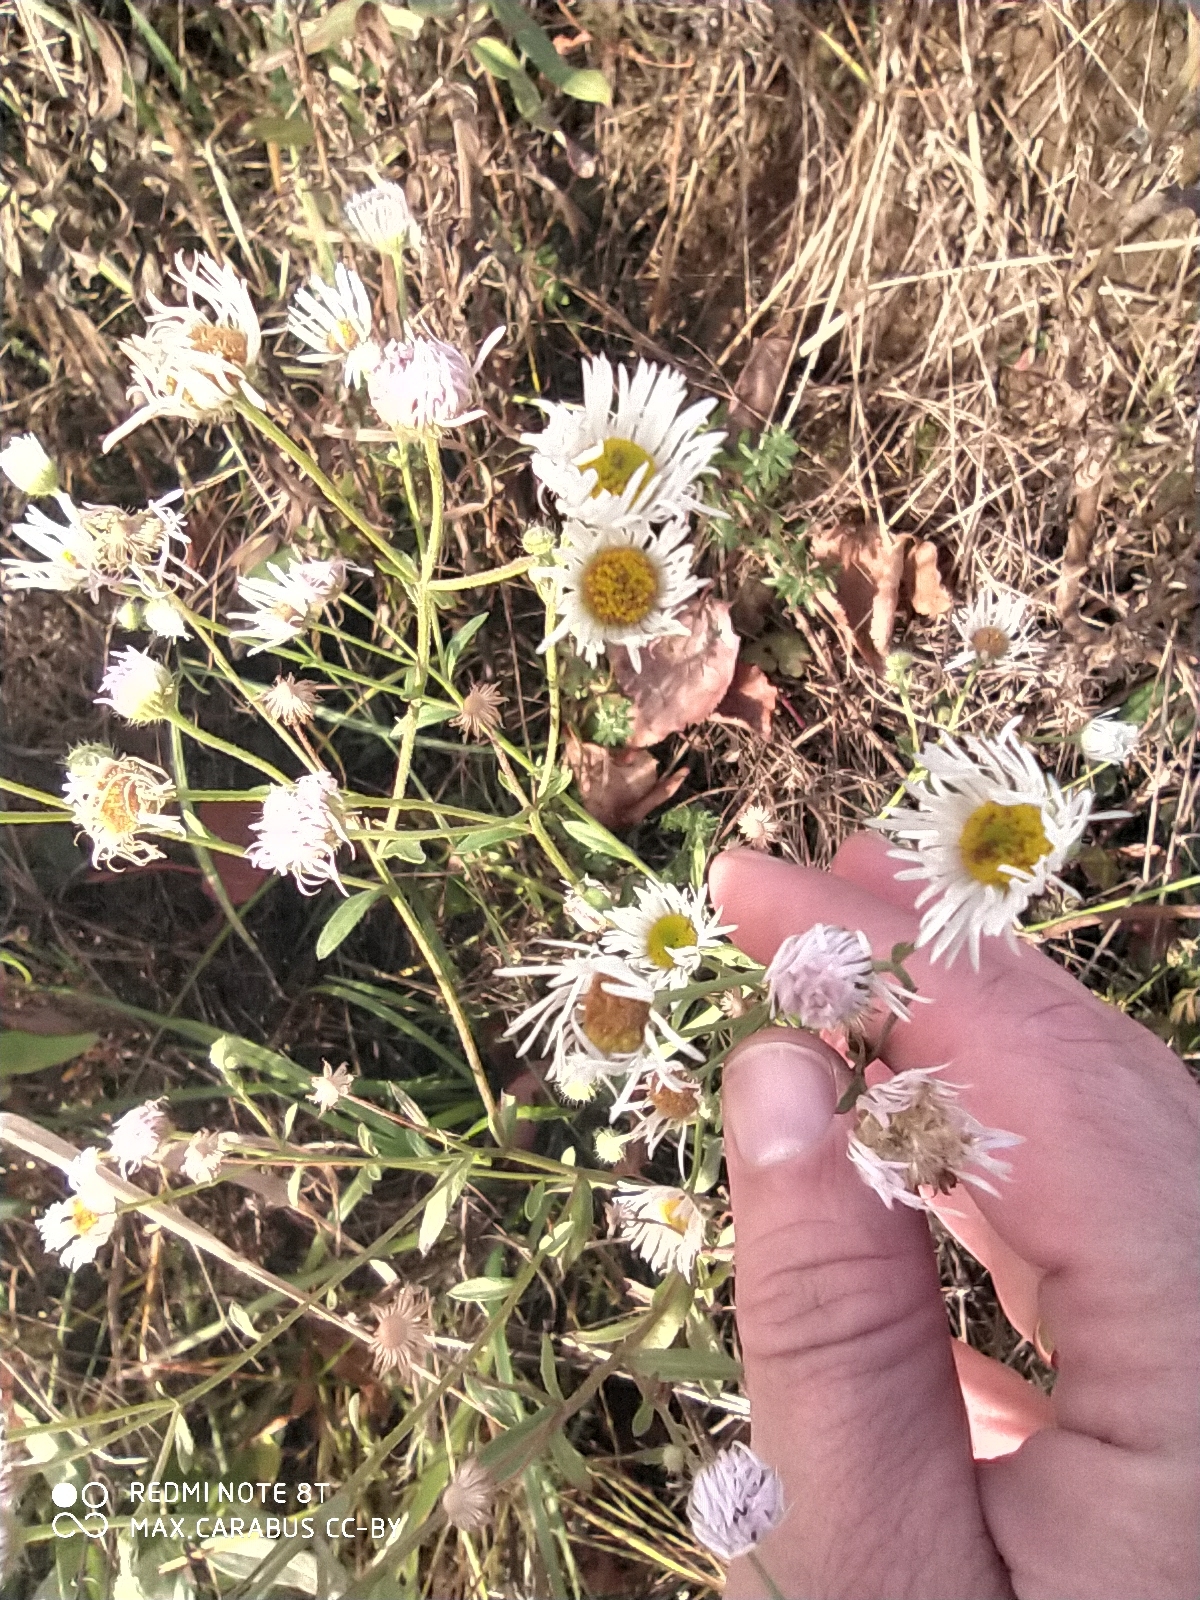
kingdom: Plantae
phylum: Tracheophyta
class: Magnoliopsida
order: Asterales
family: Asteraceae
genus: Erigeron
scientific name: Erigeron annuus
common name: Tall fleabane
